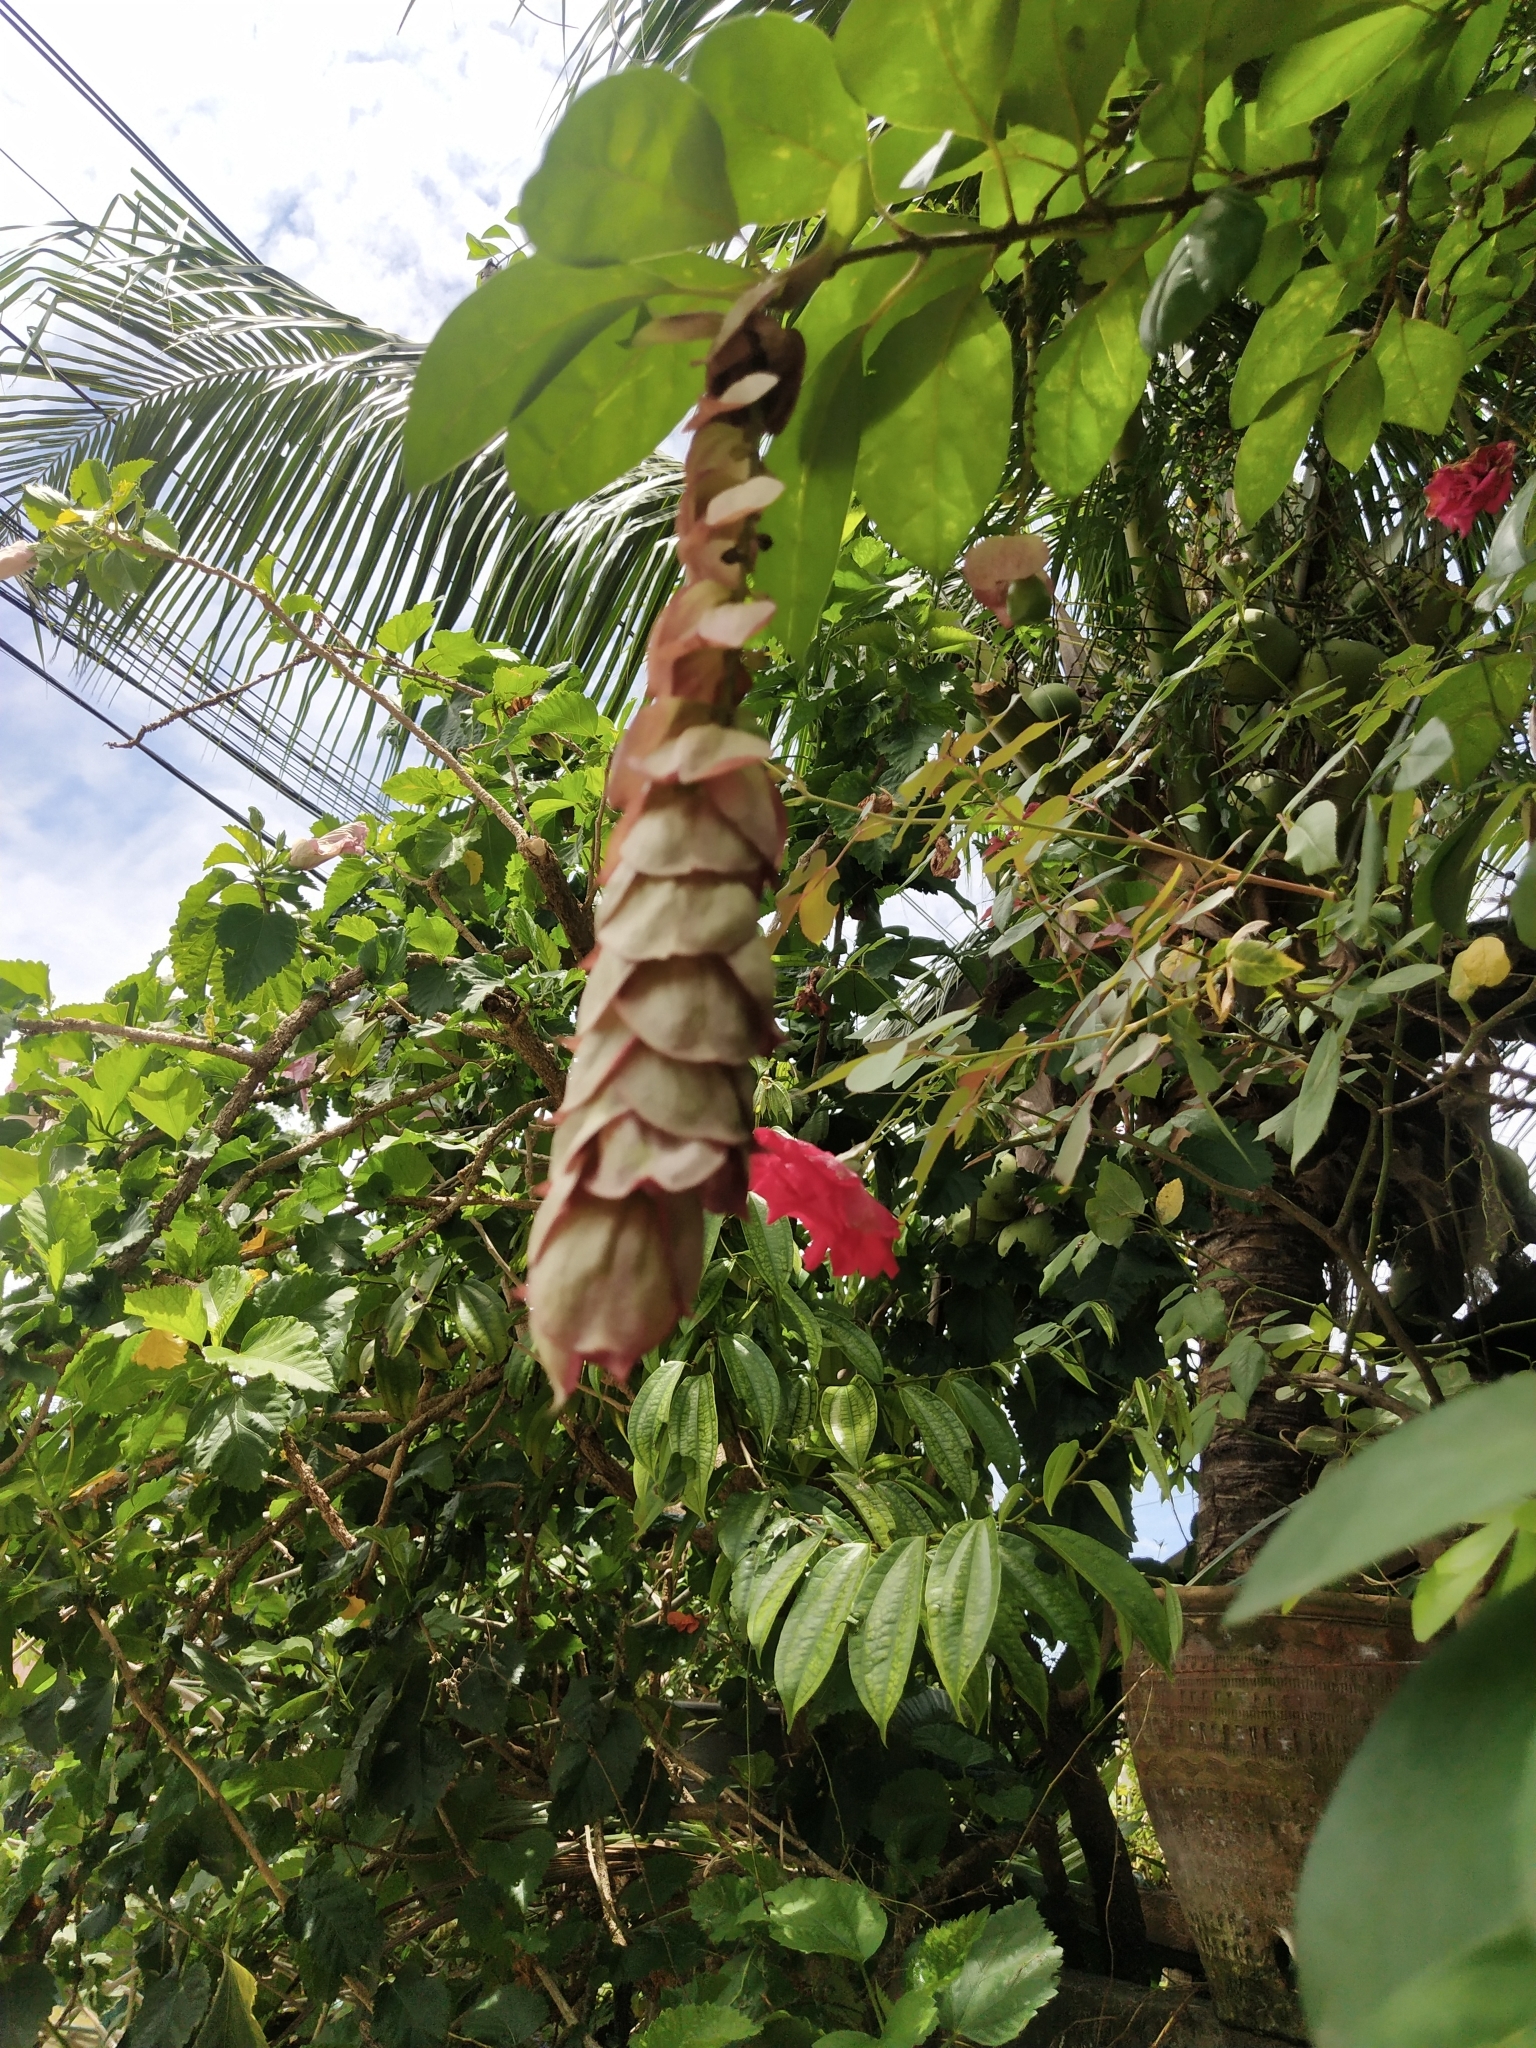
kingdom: Plantae
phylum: Tracheophyta
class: Magnoliopsida
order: Lamiales
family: Lamiaceae
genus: Gmelina
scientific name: Gmelina philippensis
